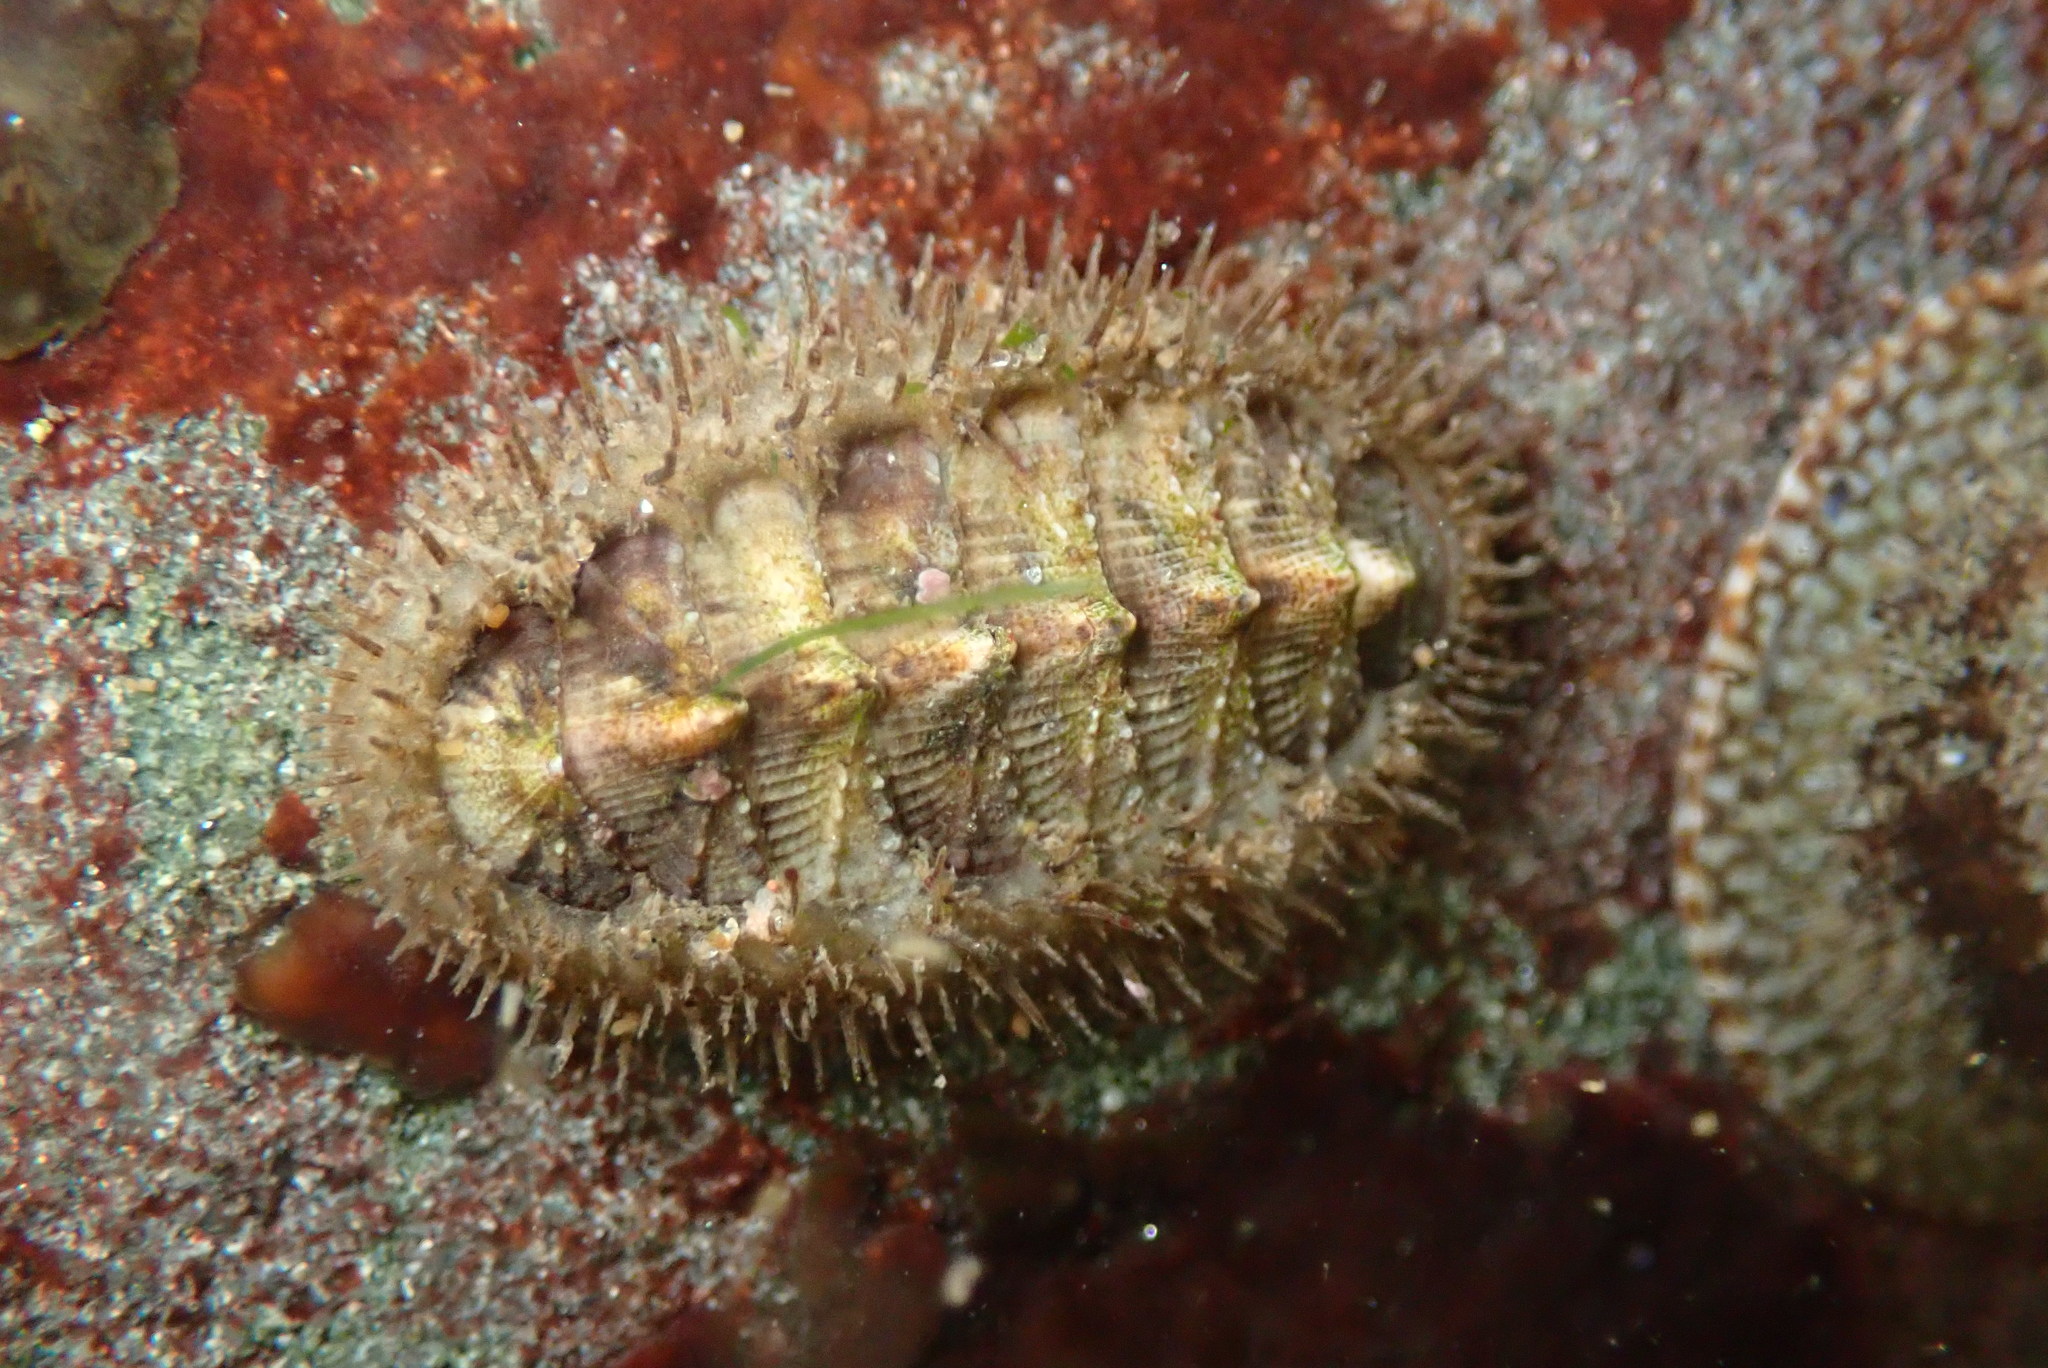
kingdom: Animalia
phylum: Mollusca
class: Polyplacophora
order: Chitonida
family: Mopaliidae
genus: Mopalia
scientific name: Mopalia muscosa
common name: Mossy chiton
